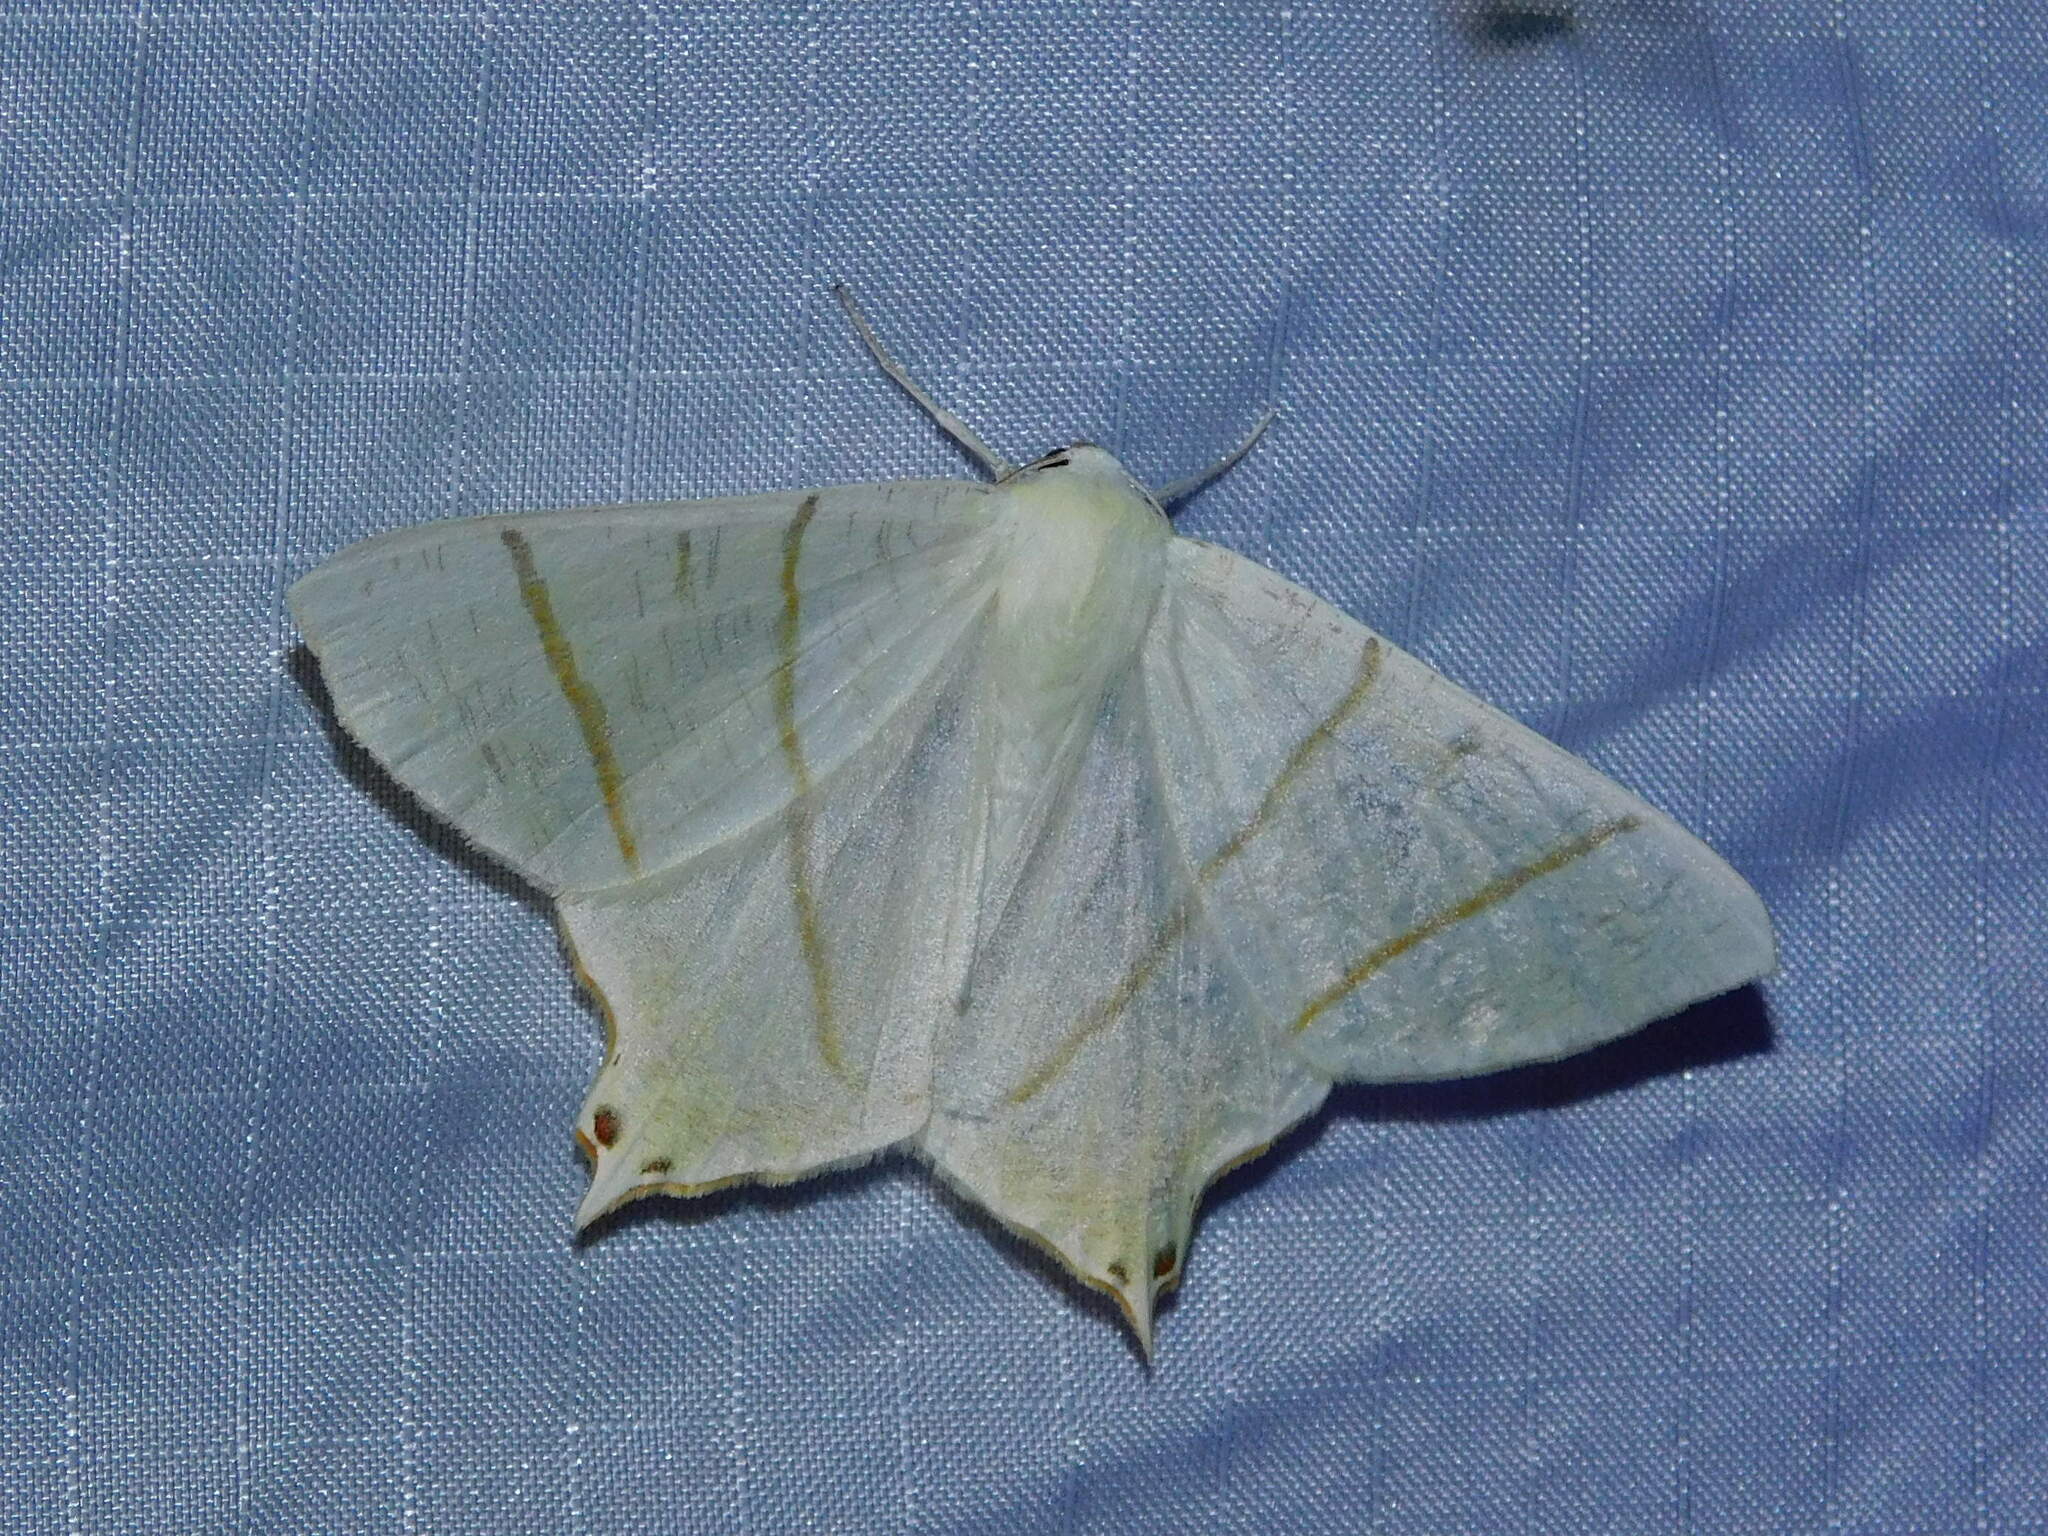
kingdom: Animalia
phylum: Arthropoda
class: Insecta
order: Lepidoptera
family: Geometridae
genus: Ourapteryx
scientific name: Ourapteryx sambucaria
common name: Swallow-tailed moth
